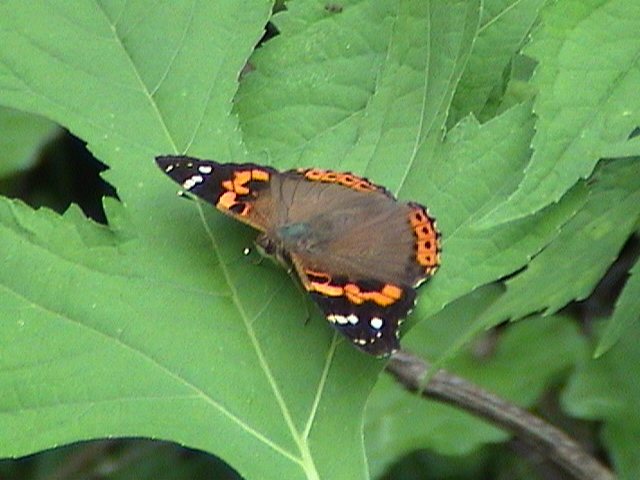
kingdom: Animalia
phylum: Arthropoda
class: Insecta
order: Lepidoptera
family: Nymphalidae
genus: Vanessa
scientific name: Vanessa indica
